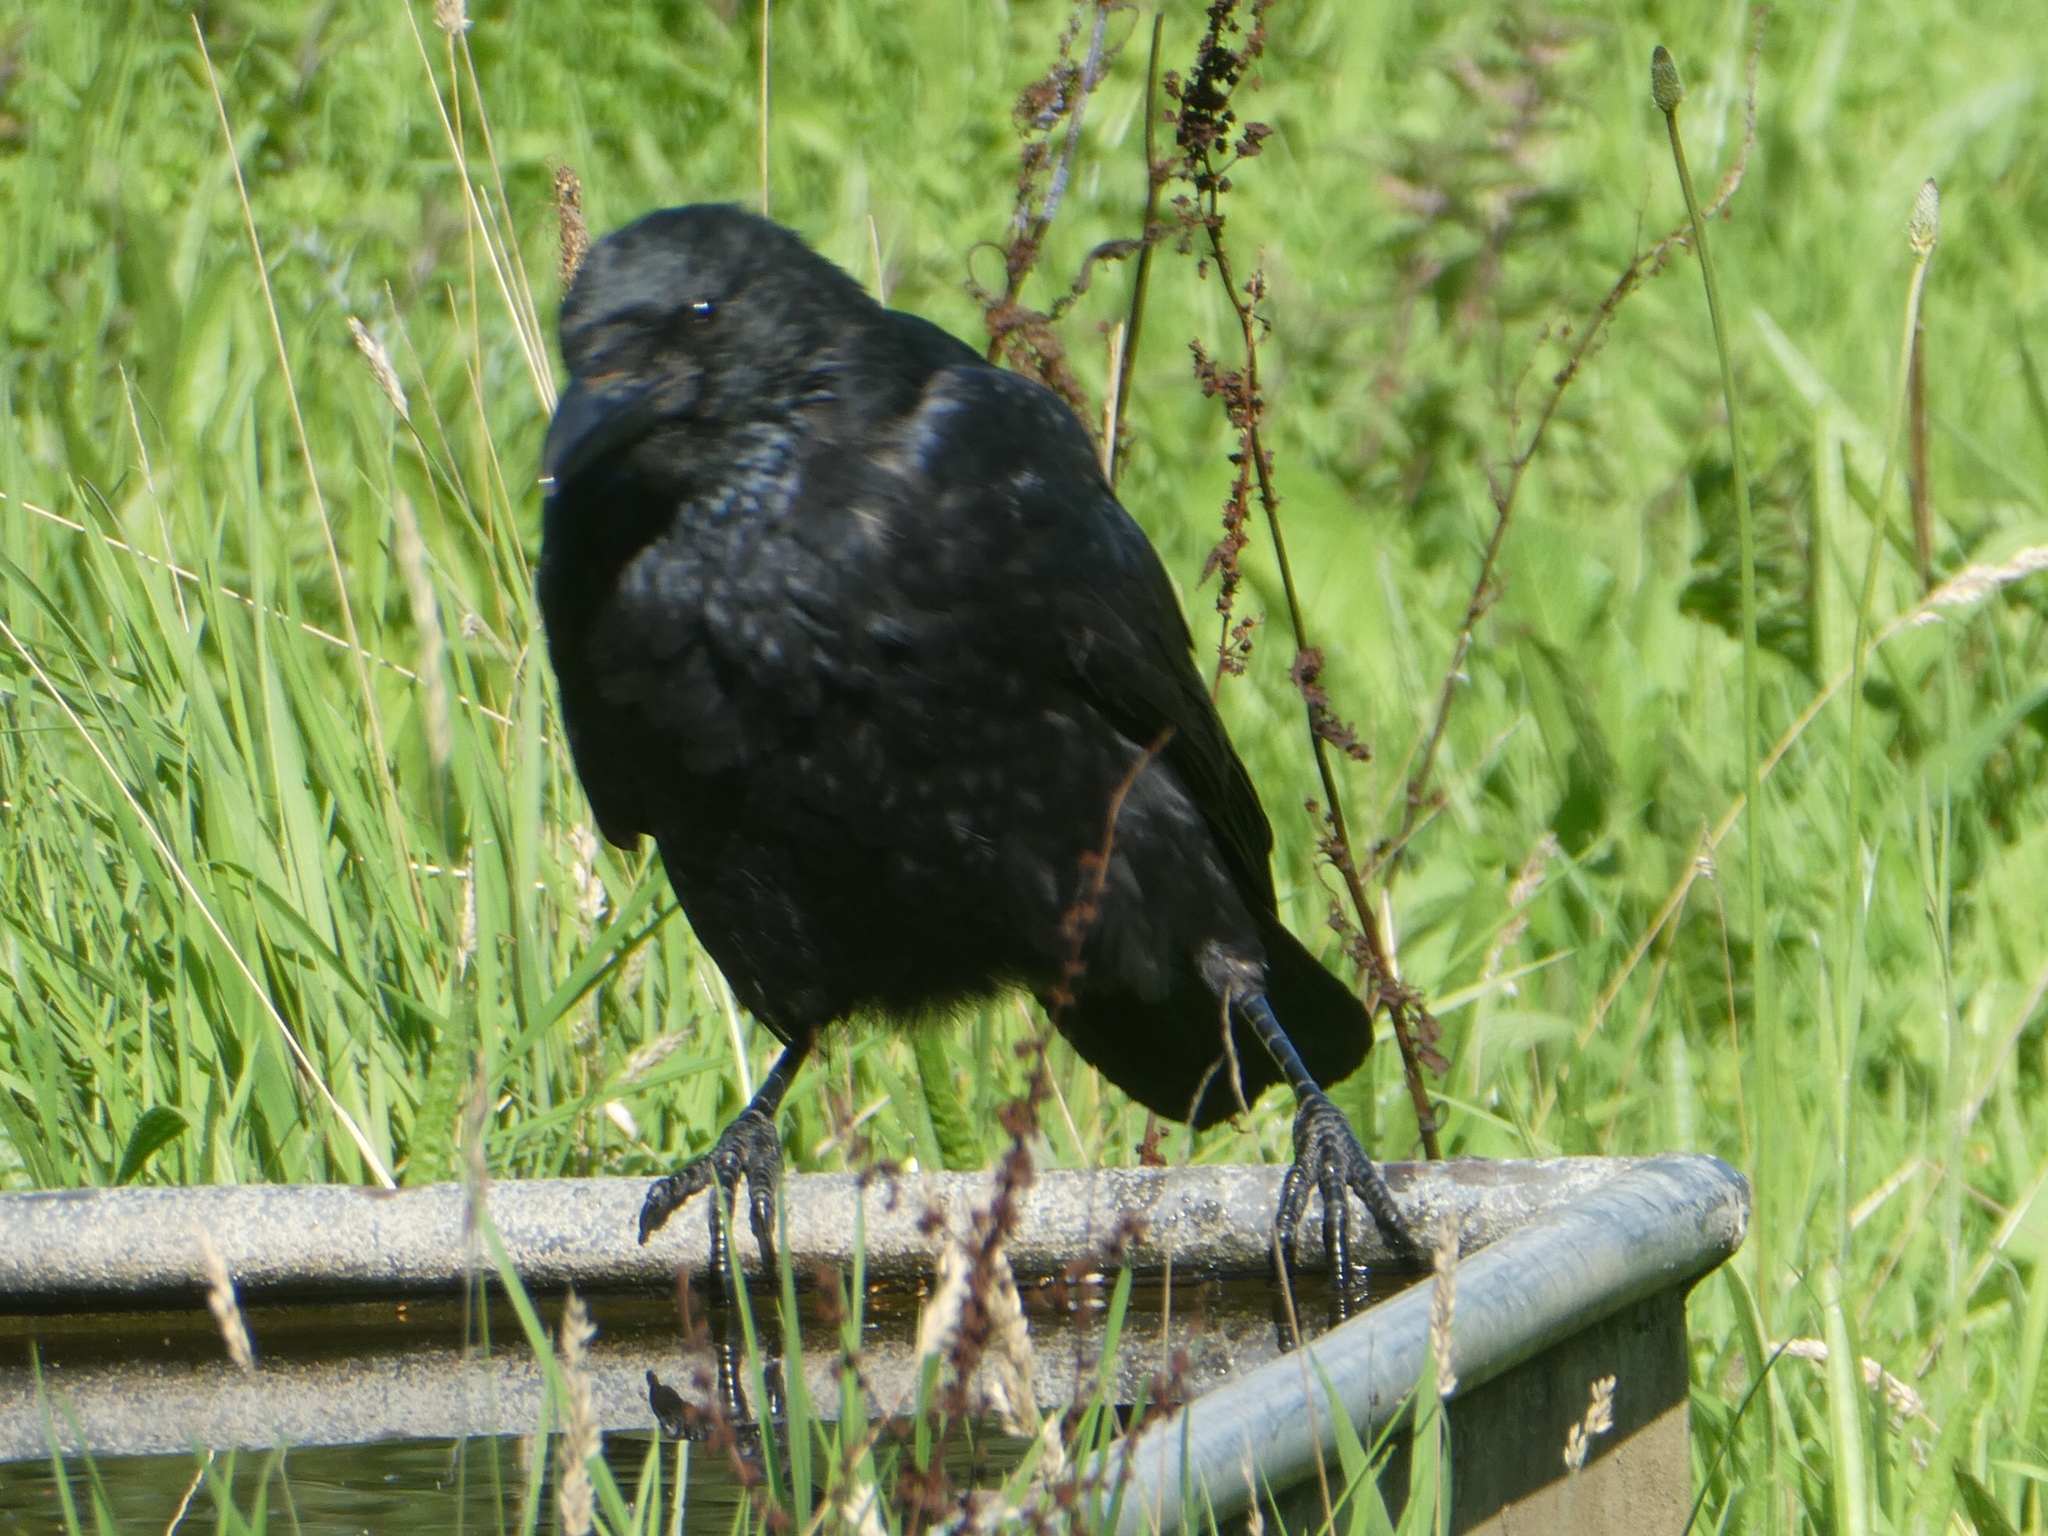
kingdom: Animalia
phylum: Chordata
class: Aves
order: Passeriformes
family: Corvidae
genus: Corvus
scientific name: Corvus corone
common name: Carrion crow
